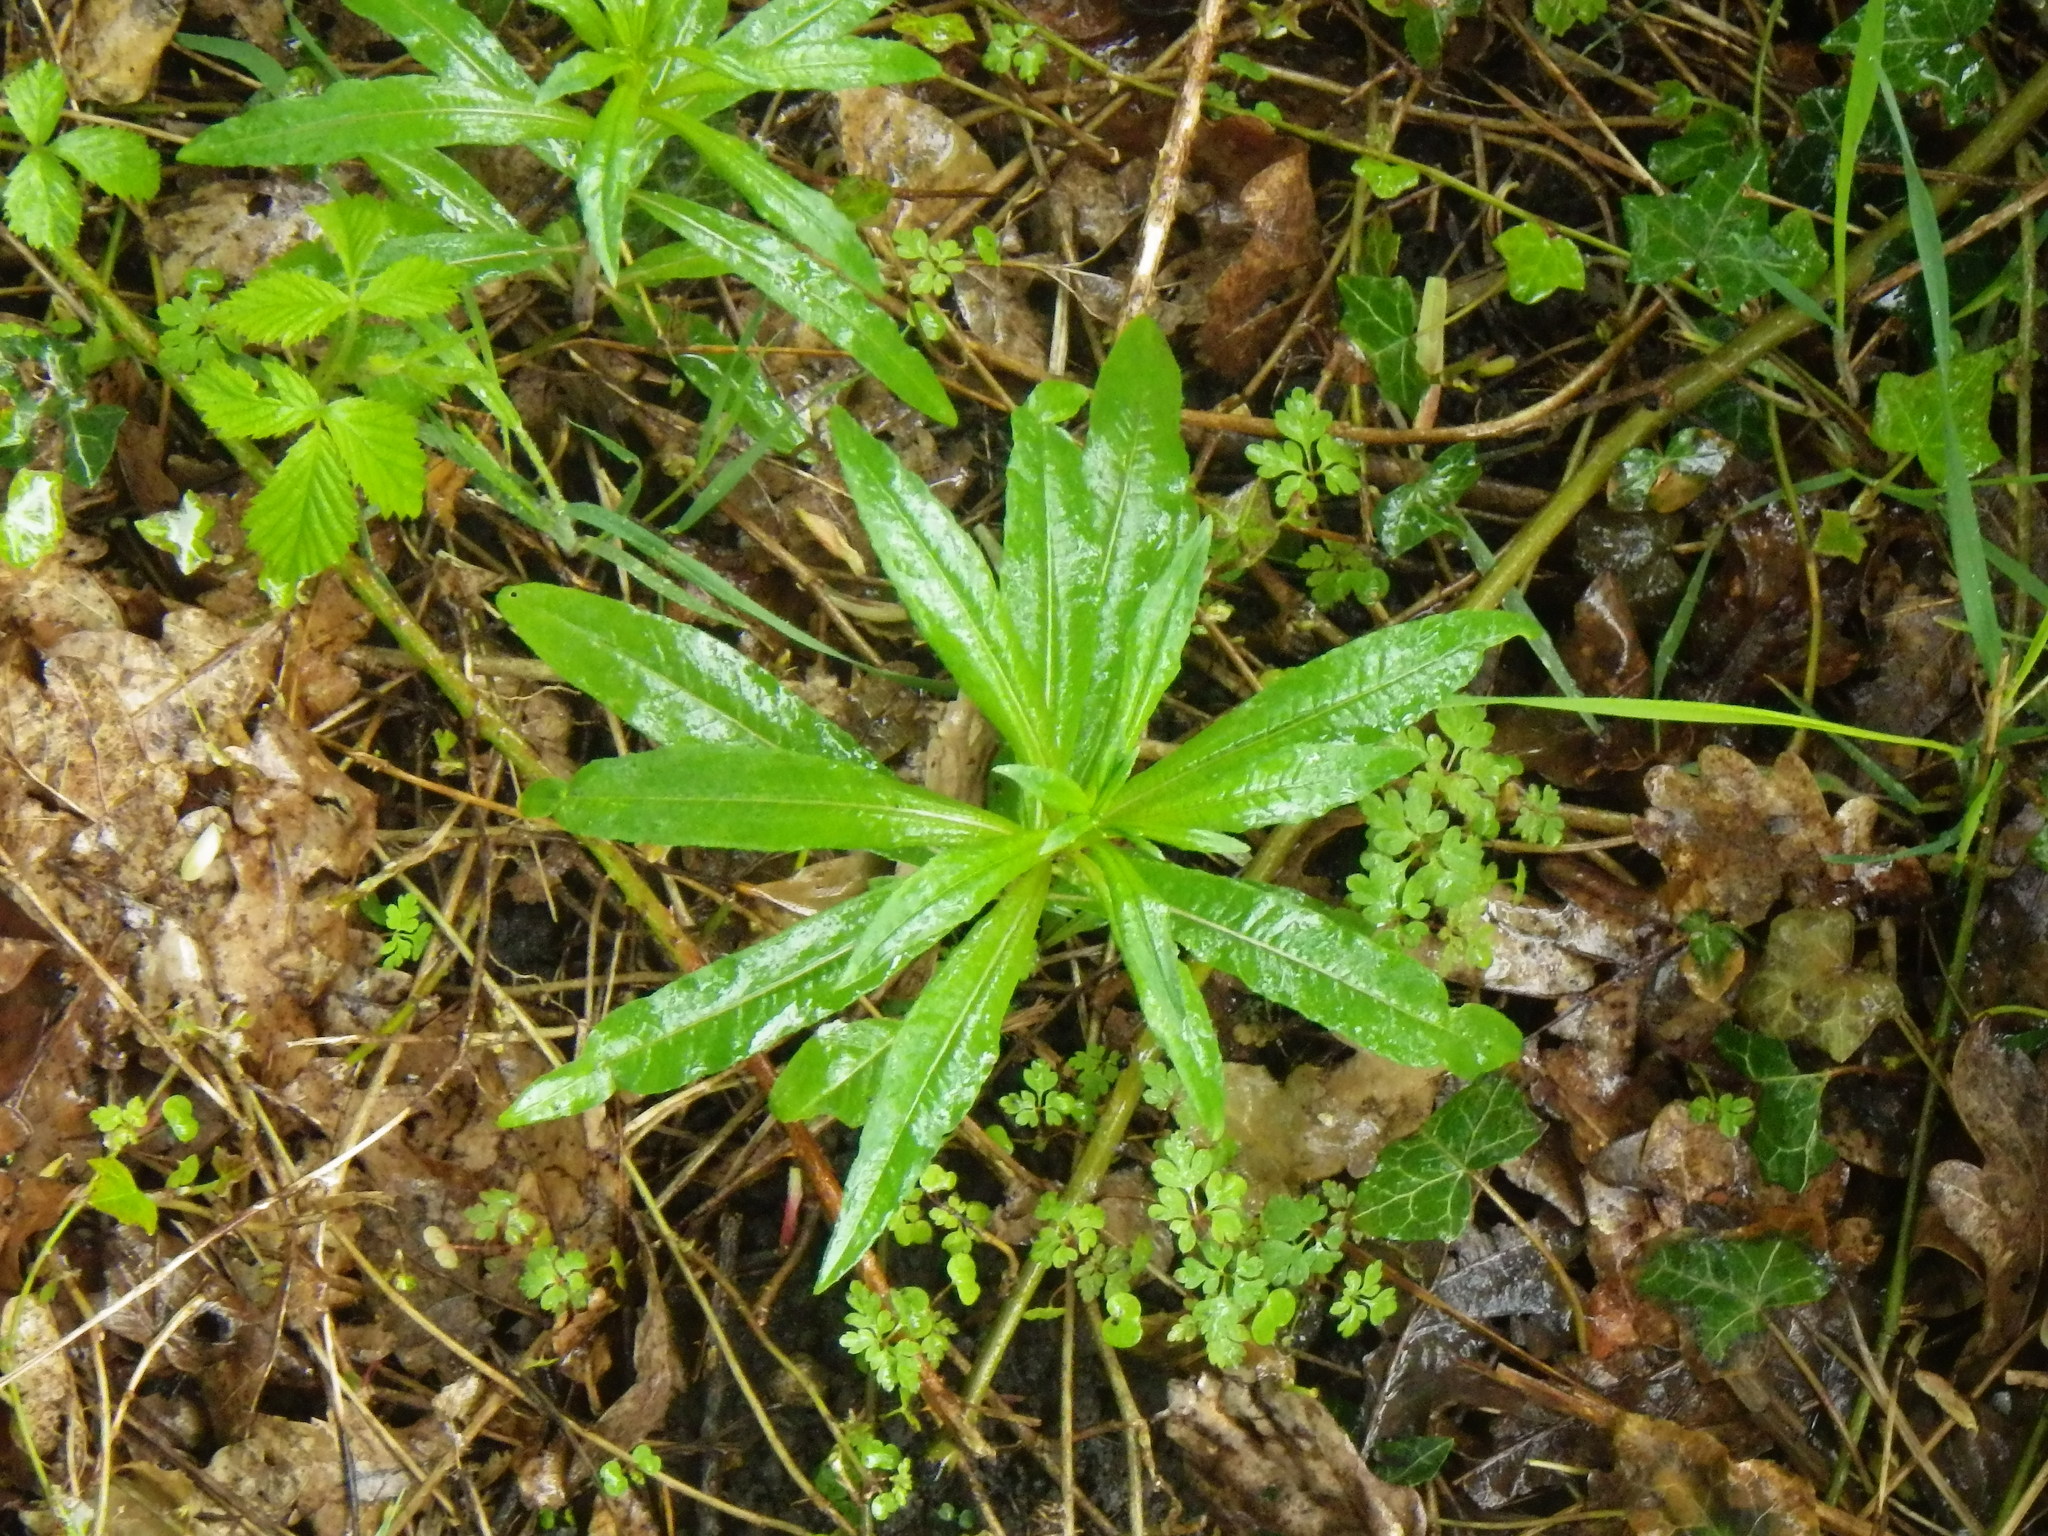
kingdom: Plantae
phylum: Tracheophyta
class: Magnoliopsida
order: Myrtales
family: Onagraceae
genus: Chamaenerion
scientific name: Chamaenerion angustifolium
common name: Fireweed
